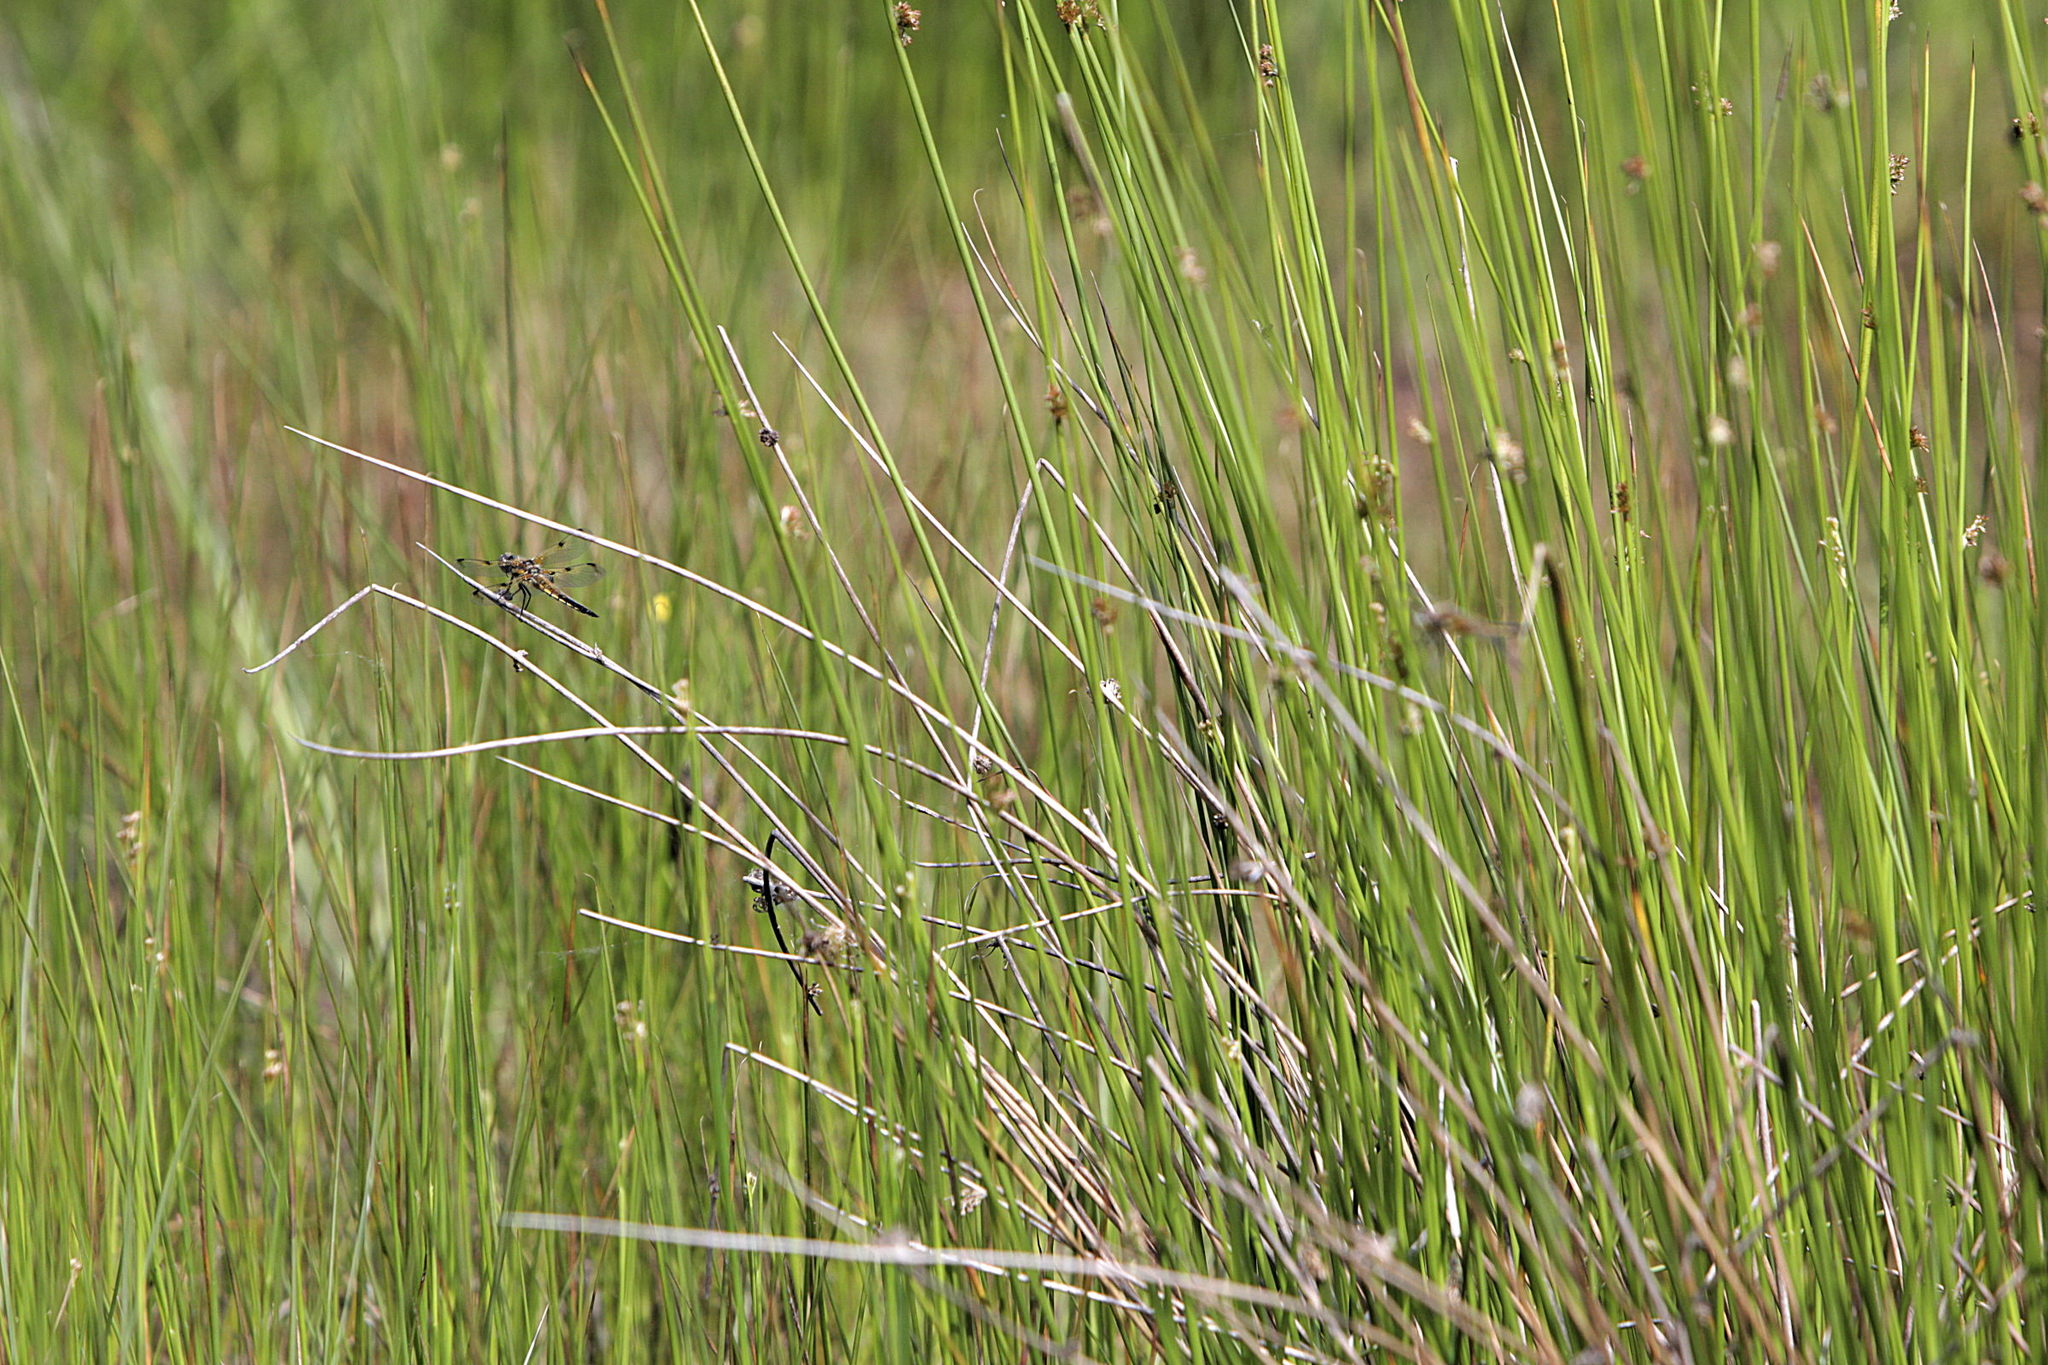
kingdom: Animalia
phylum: Arthropoda
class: Insecta
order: Odonata
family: Libellulidae
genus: Libellula
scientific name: Libellula quadrimaculata
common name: Four-spotted chaser
